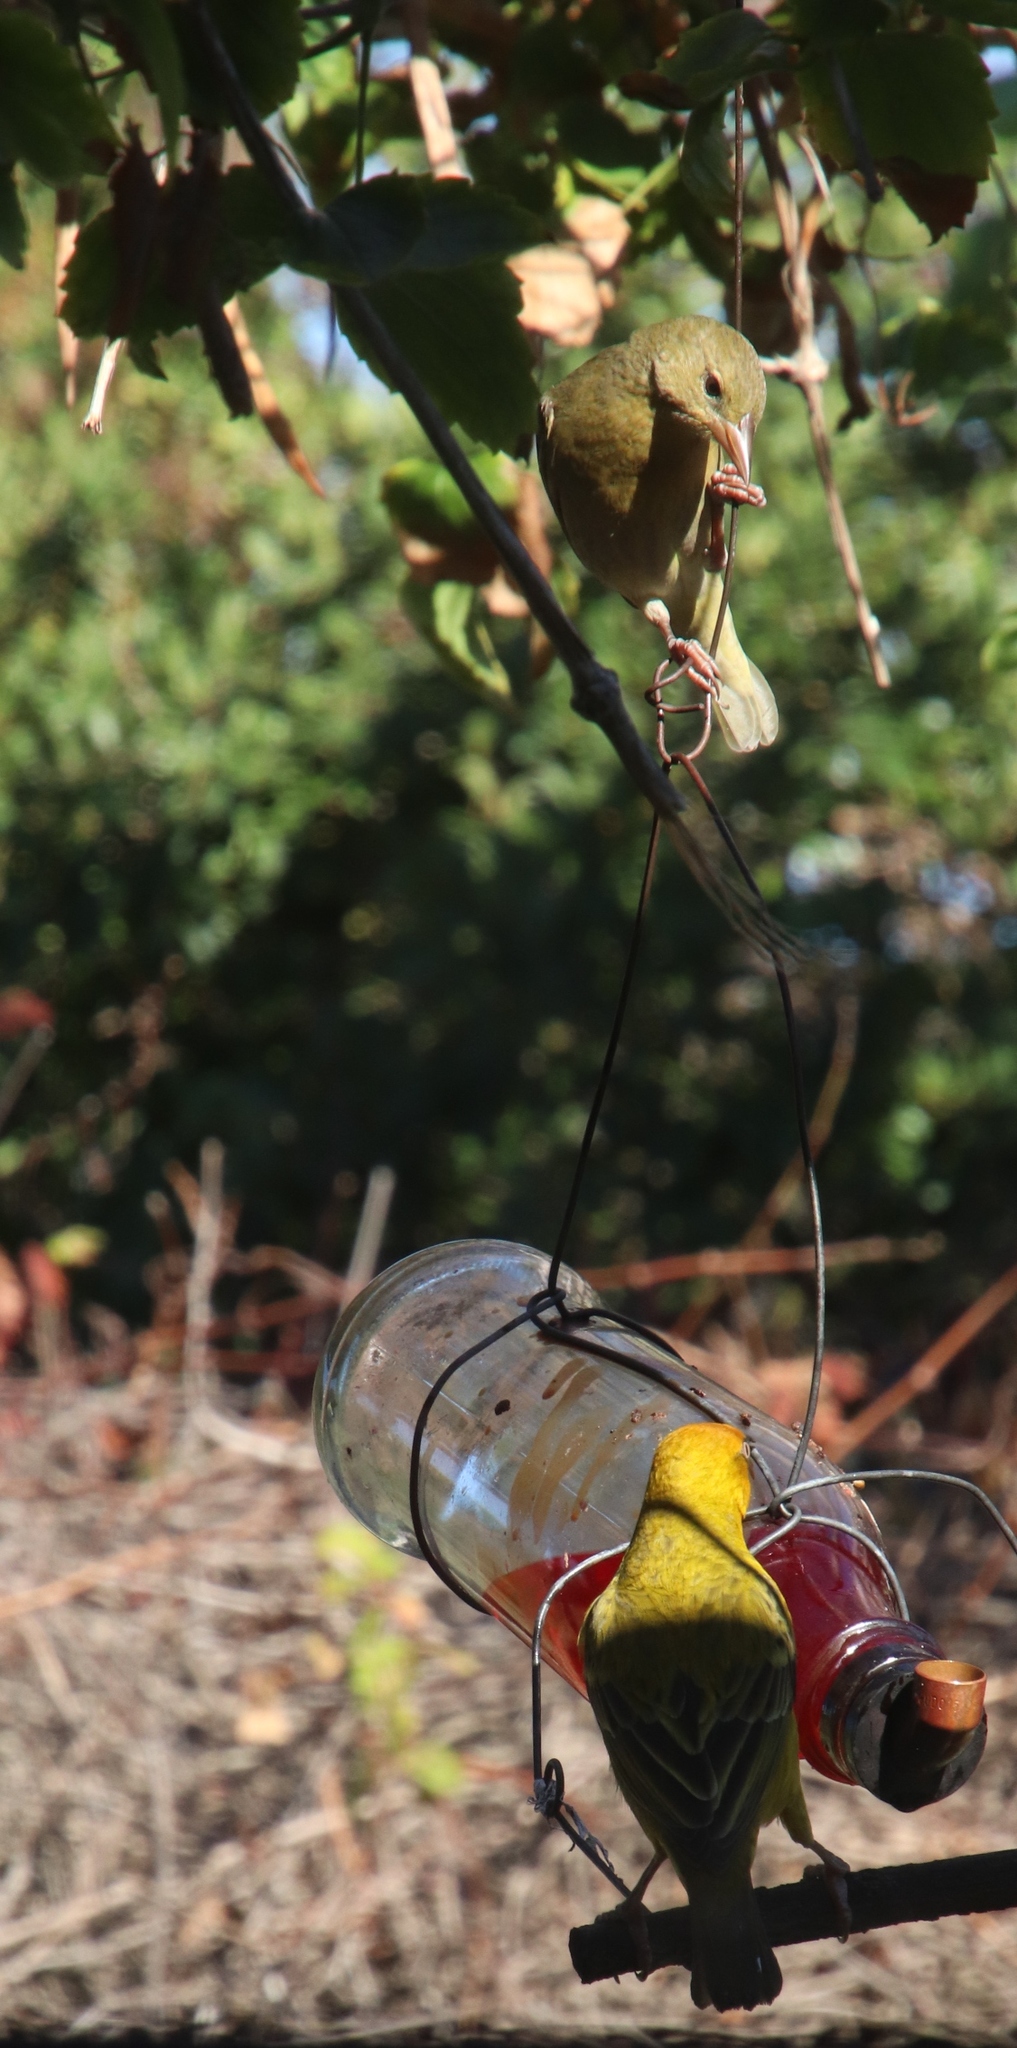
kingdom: Animalia
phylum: Chordata
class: Aves
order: Passeriformes
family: Ploceidae
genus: Ploceus
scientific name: Ploceus capensis
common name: Cape weaver
